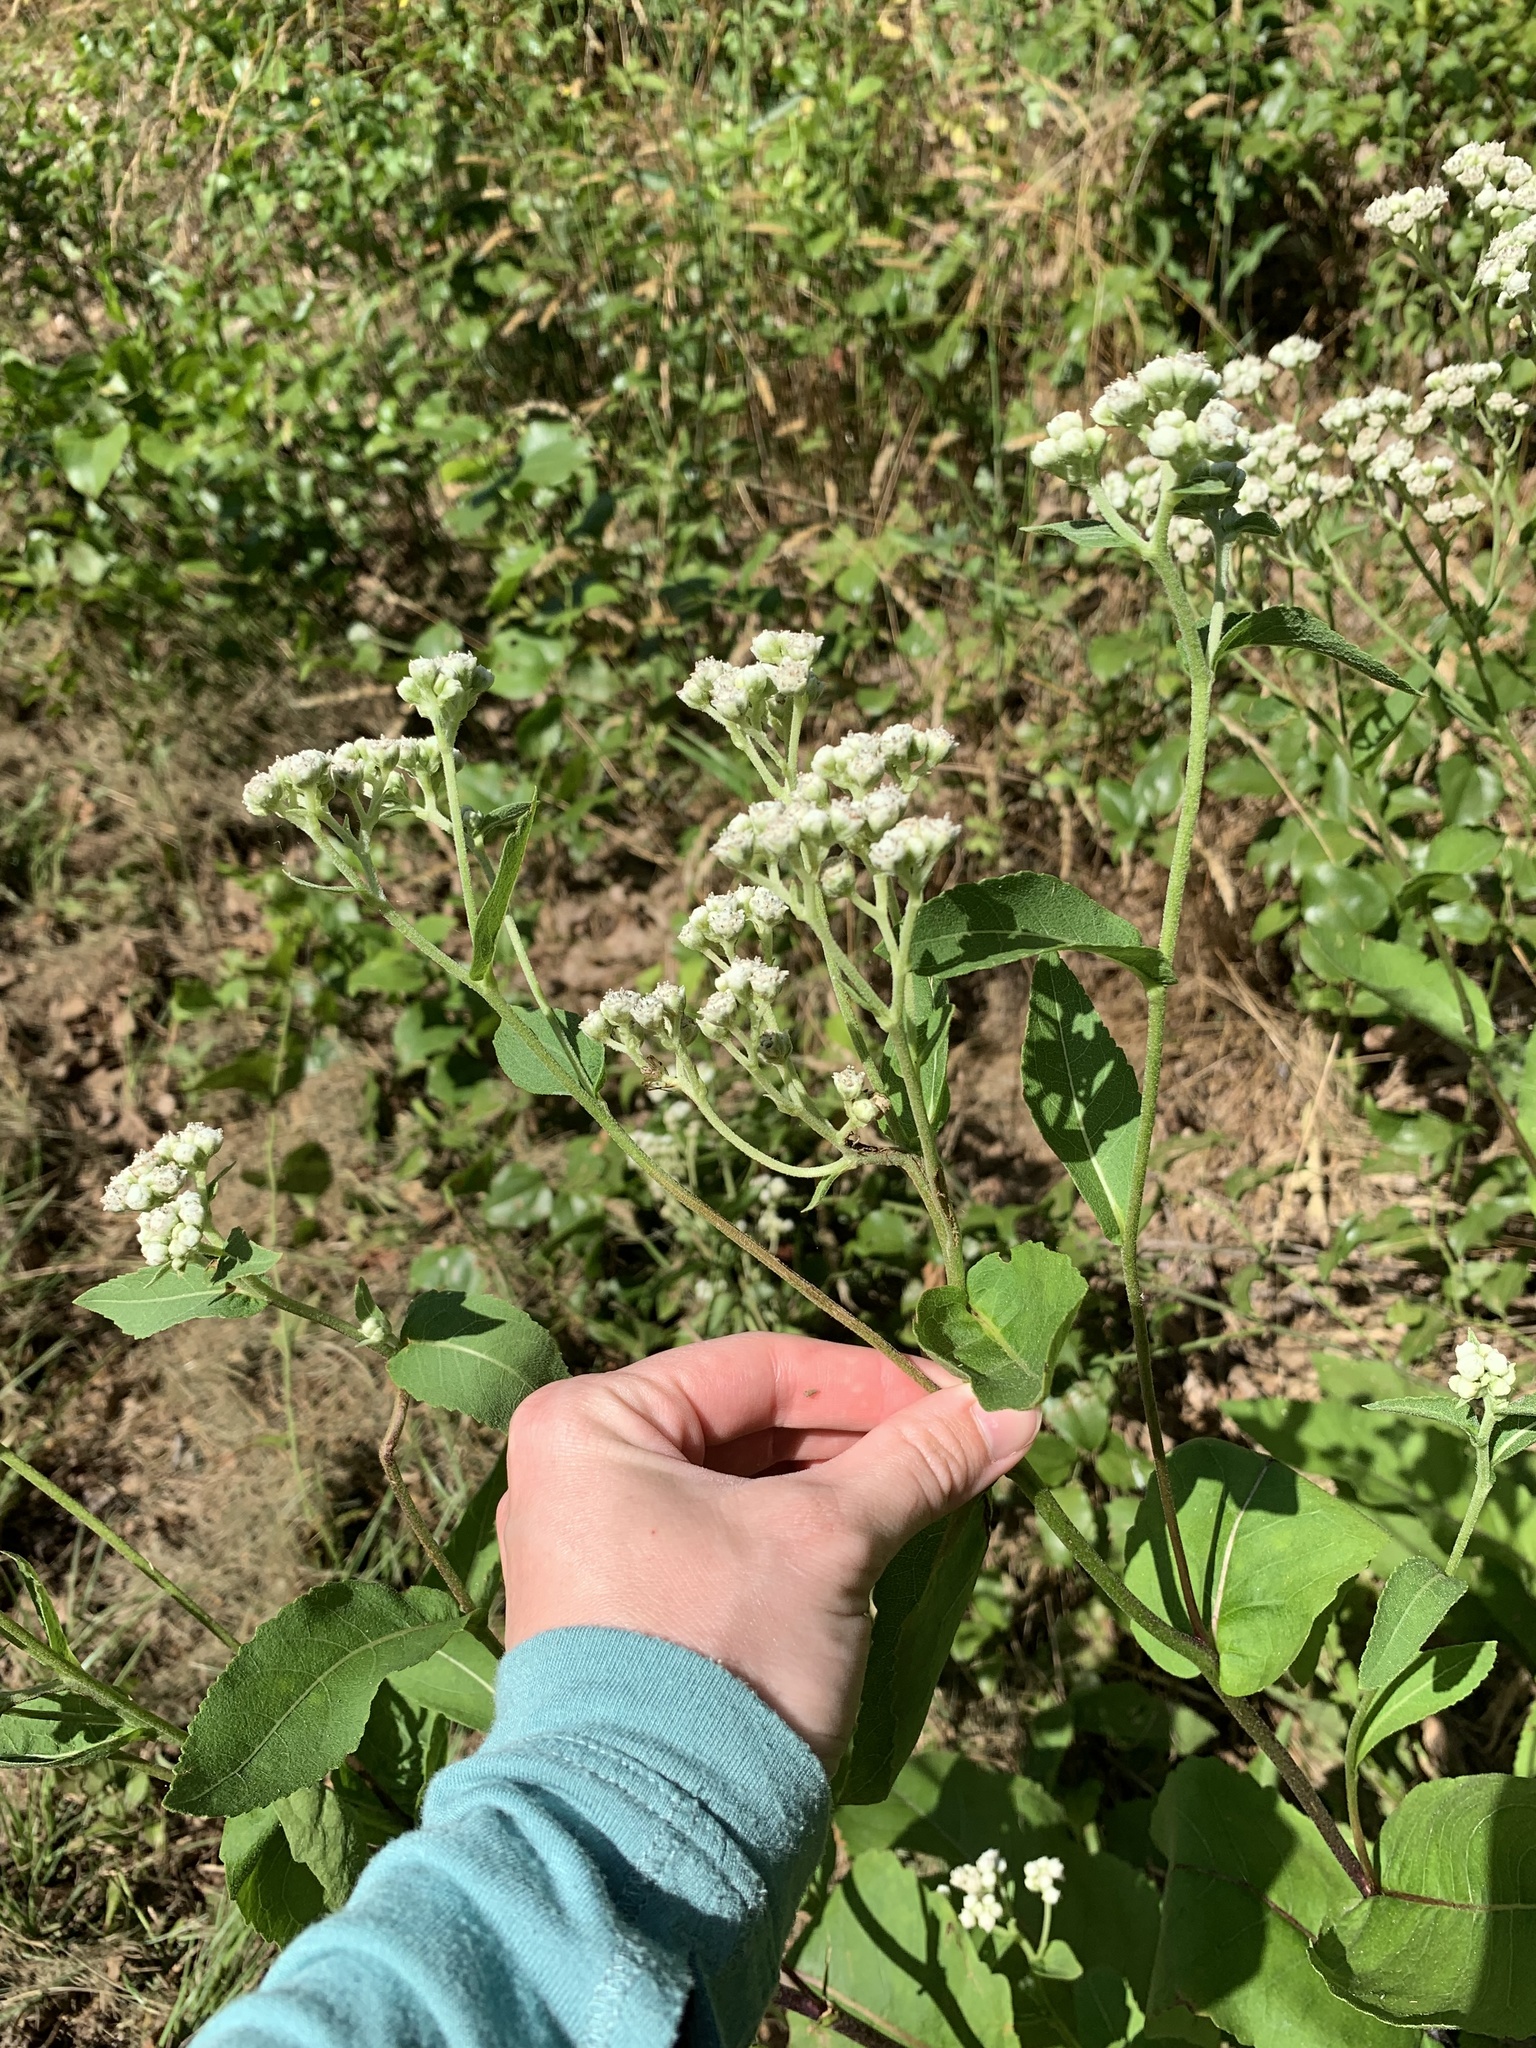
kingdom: Plantae
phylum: Tracheophyta
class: Magnoliopsida
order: Asterales
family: Asteraceae
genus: Parthenium
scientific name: Parthenium integrifolium
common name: American feverfew
